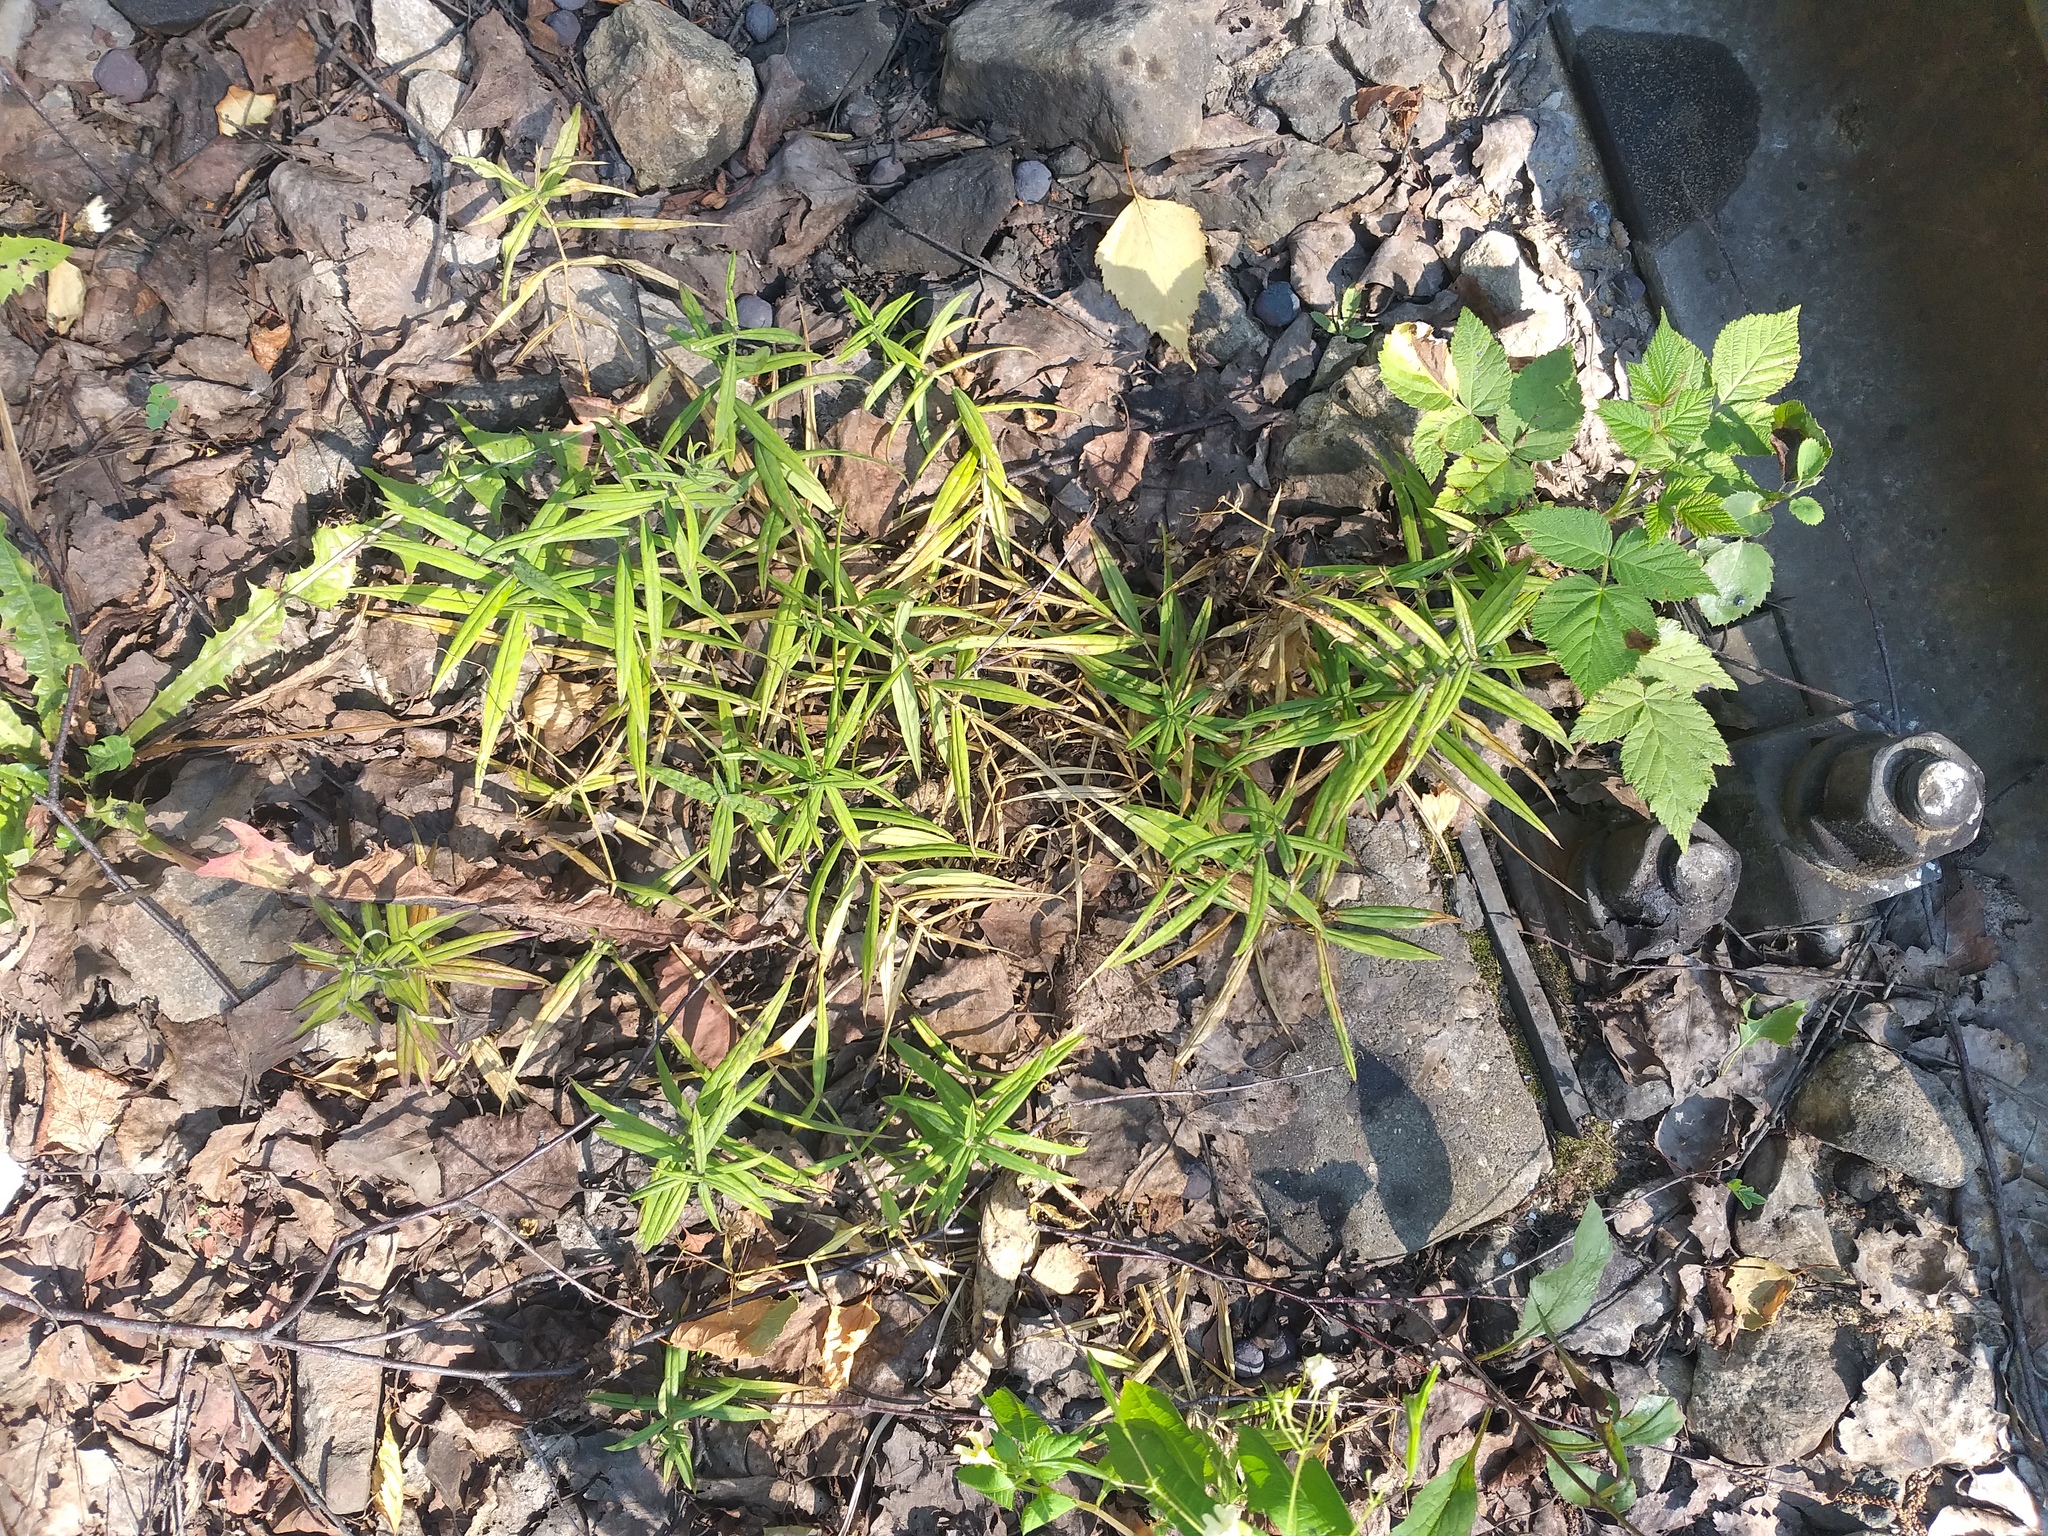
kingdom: Plantae
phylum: Tracheophyta
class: Magnoliopsida
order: Caryophyllales
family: Caryophyllaceae
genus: Rabelera
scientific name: Rabelera holostea
